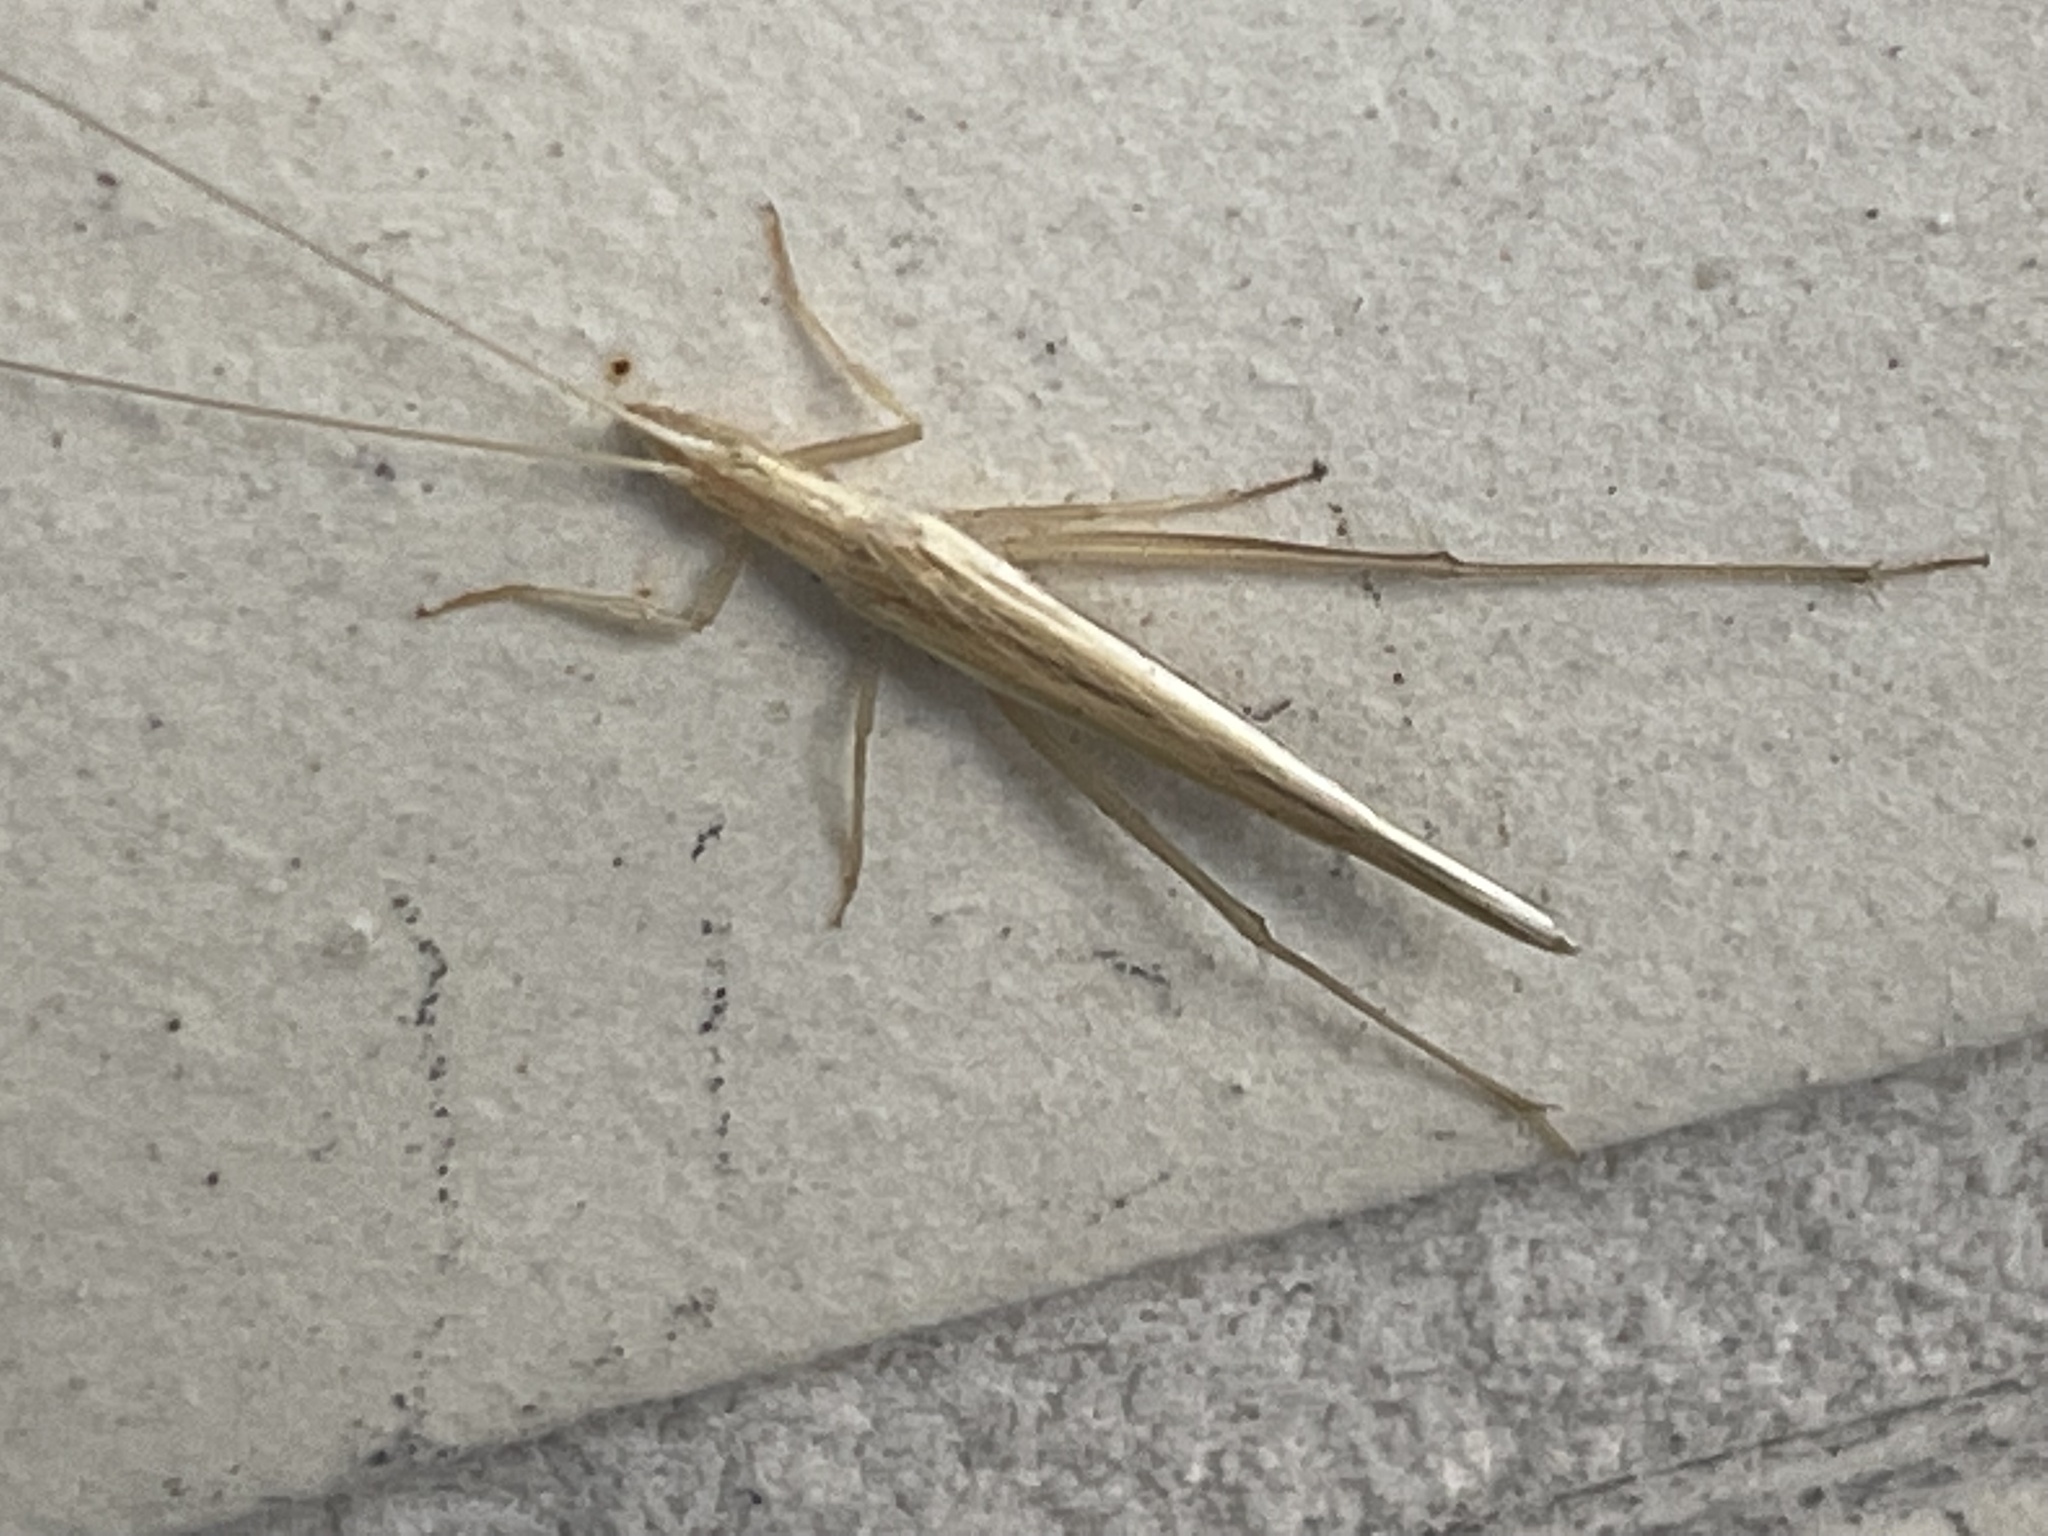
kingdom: Animalia
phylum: Arthropoda
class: Insecta
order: Orthoptera
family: Gryllidae
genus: Oecanthus
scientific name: Oecanthus rufescens
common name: Striped tree cricket
